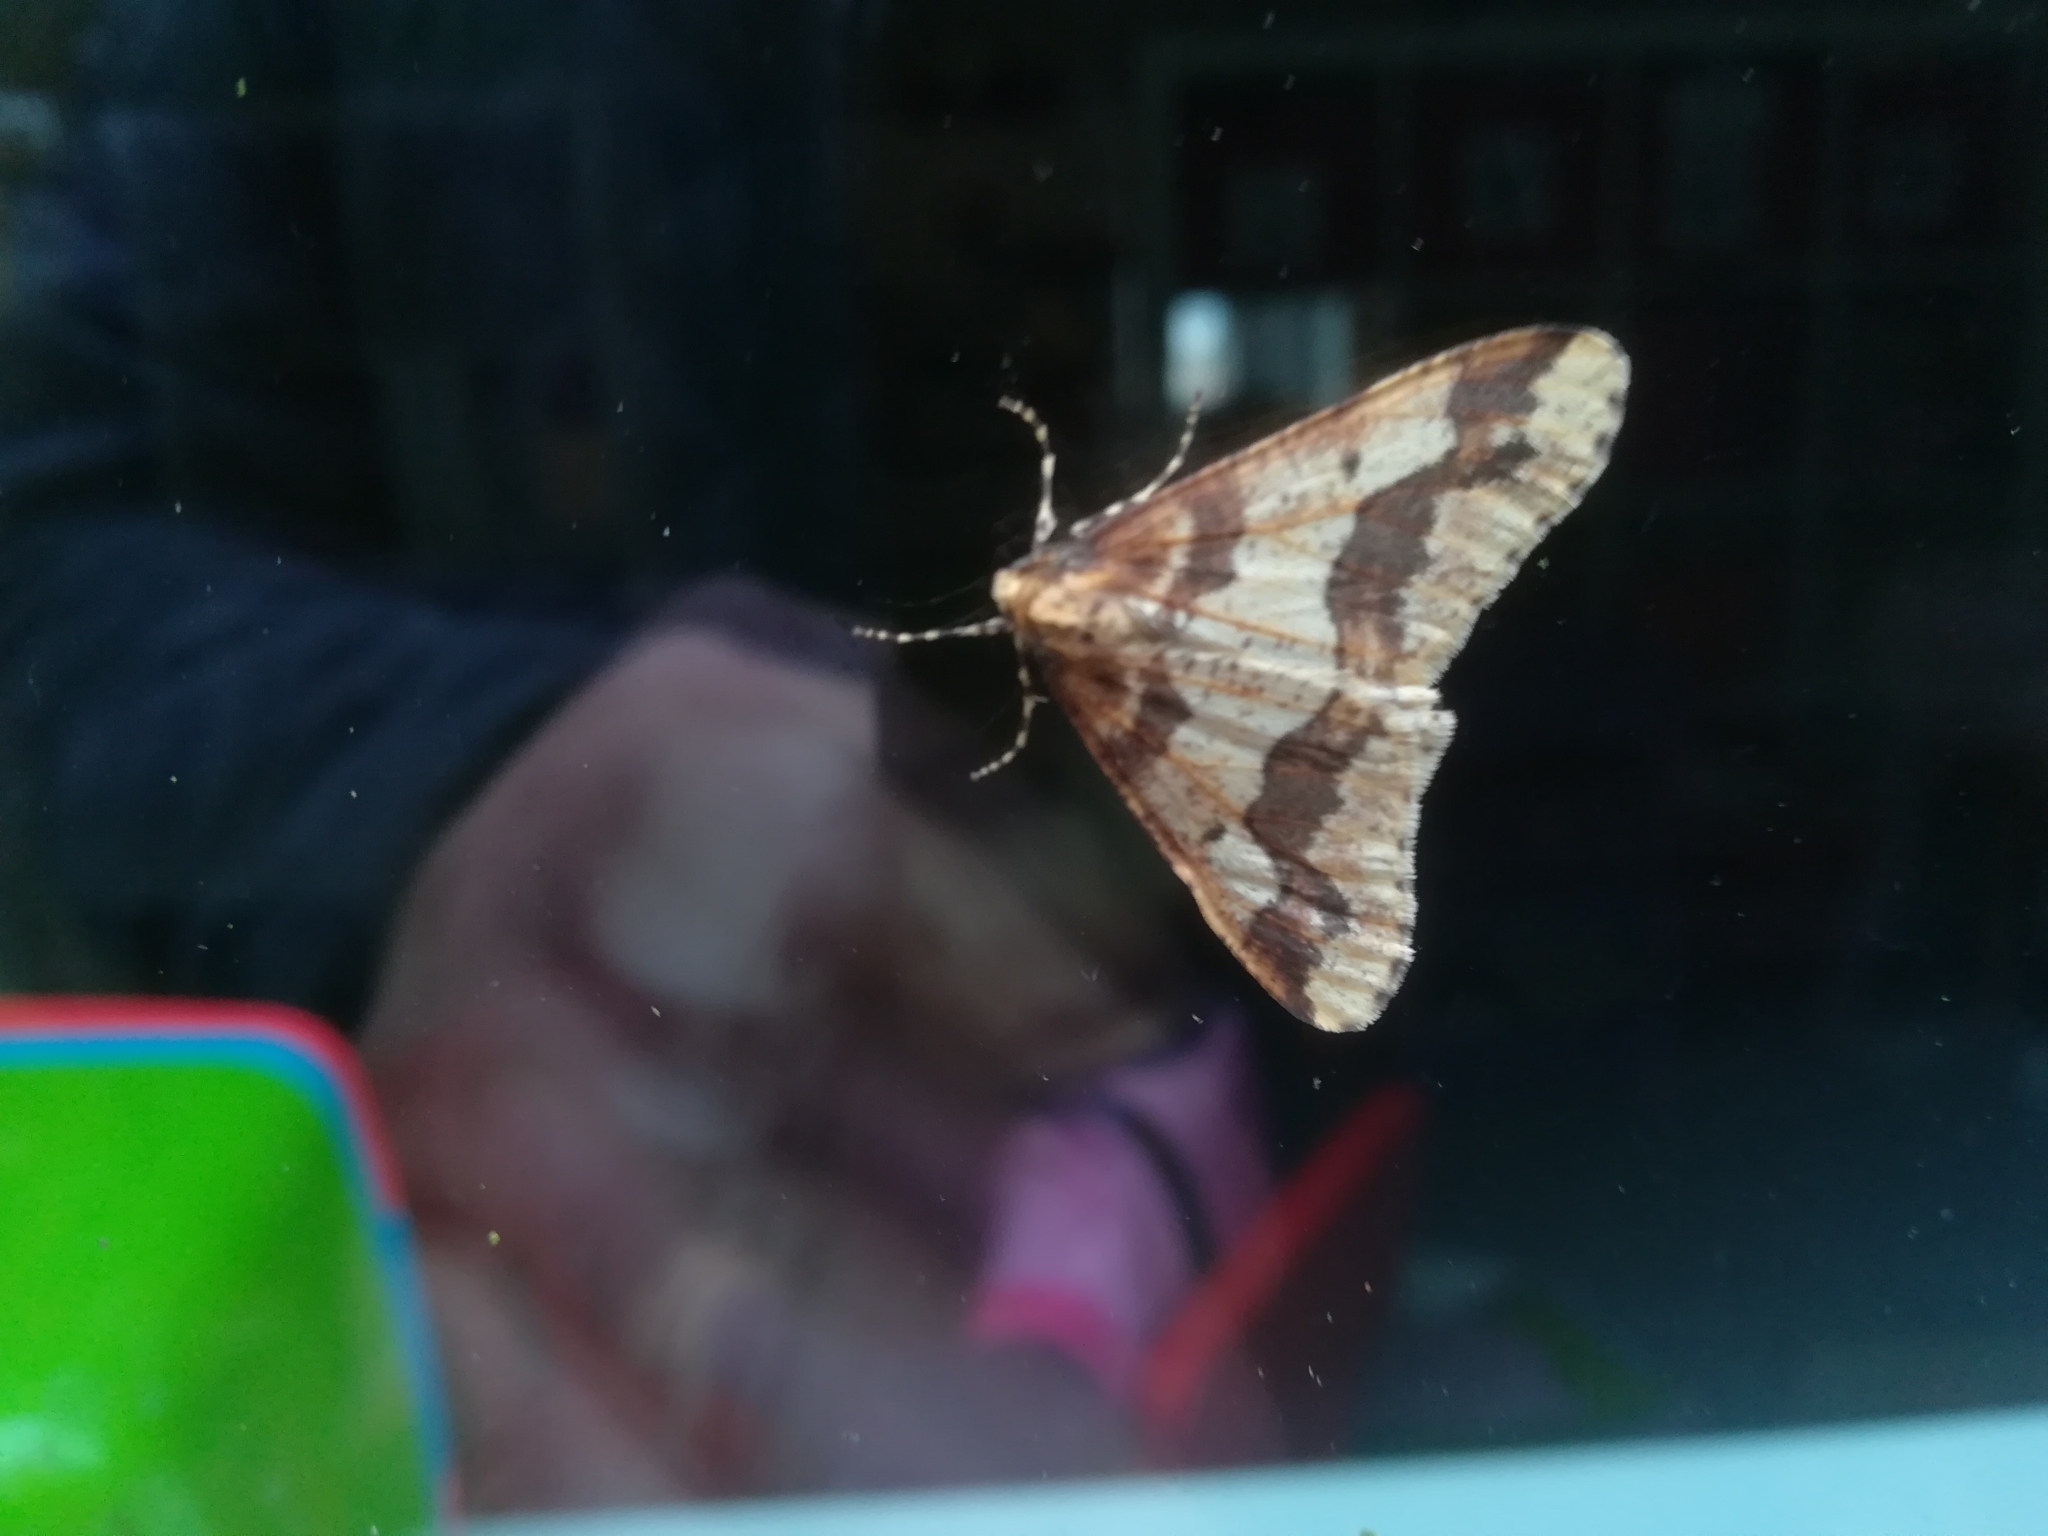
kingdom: Animalia
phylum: Arthropoda
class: Insecta
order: Lepidoptera
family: Geometridae
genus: Erannis
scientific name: Erannis defoliaria
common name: Mottled umber
